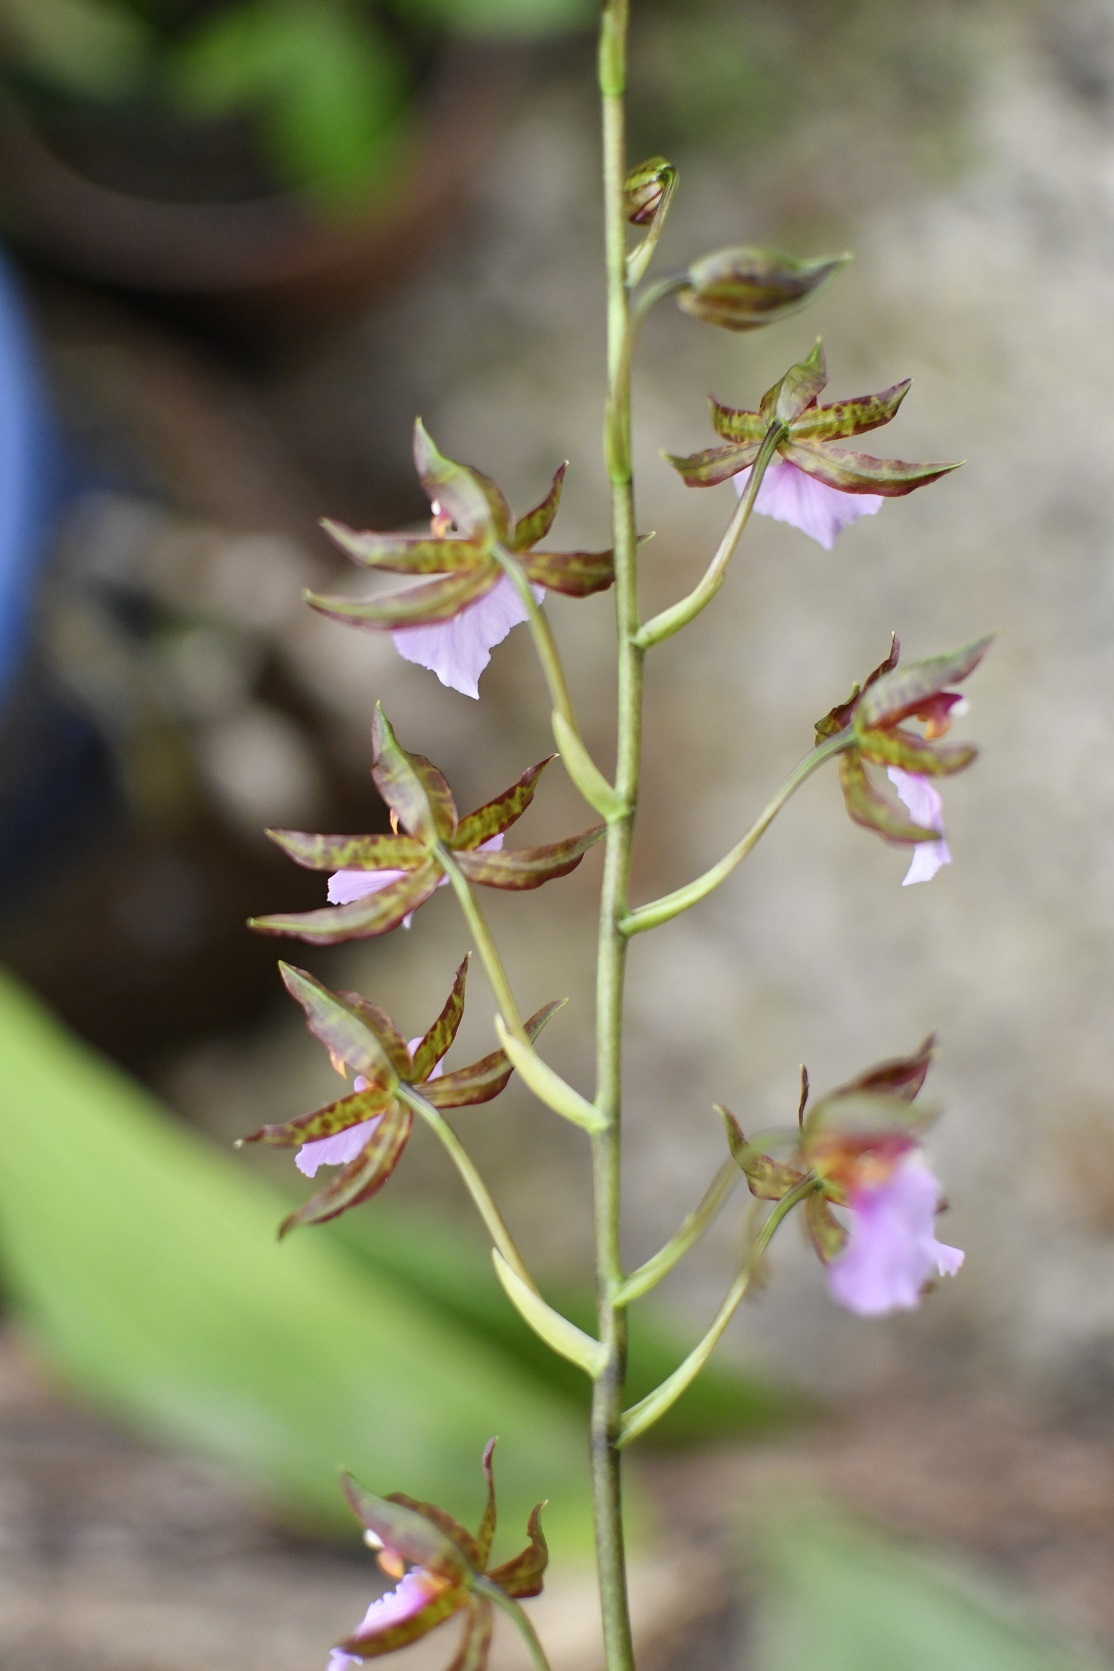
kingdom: Plantae
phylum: Tracheophyta
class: Liliopsida
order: Asparagales
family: Orchidaceae
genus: Rhynchostele
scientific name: Rhynchostele bictoniensis
